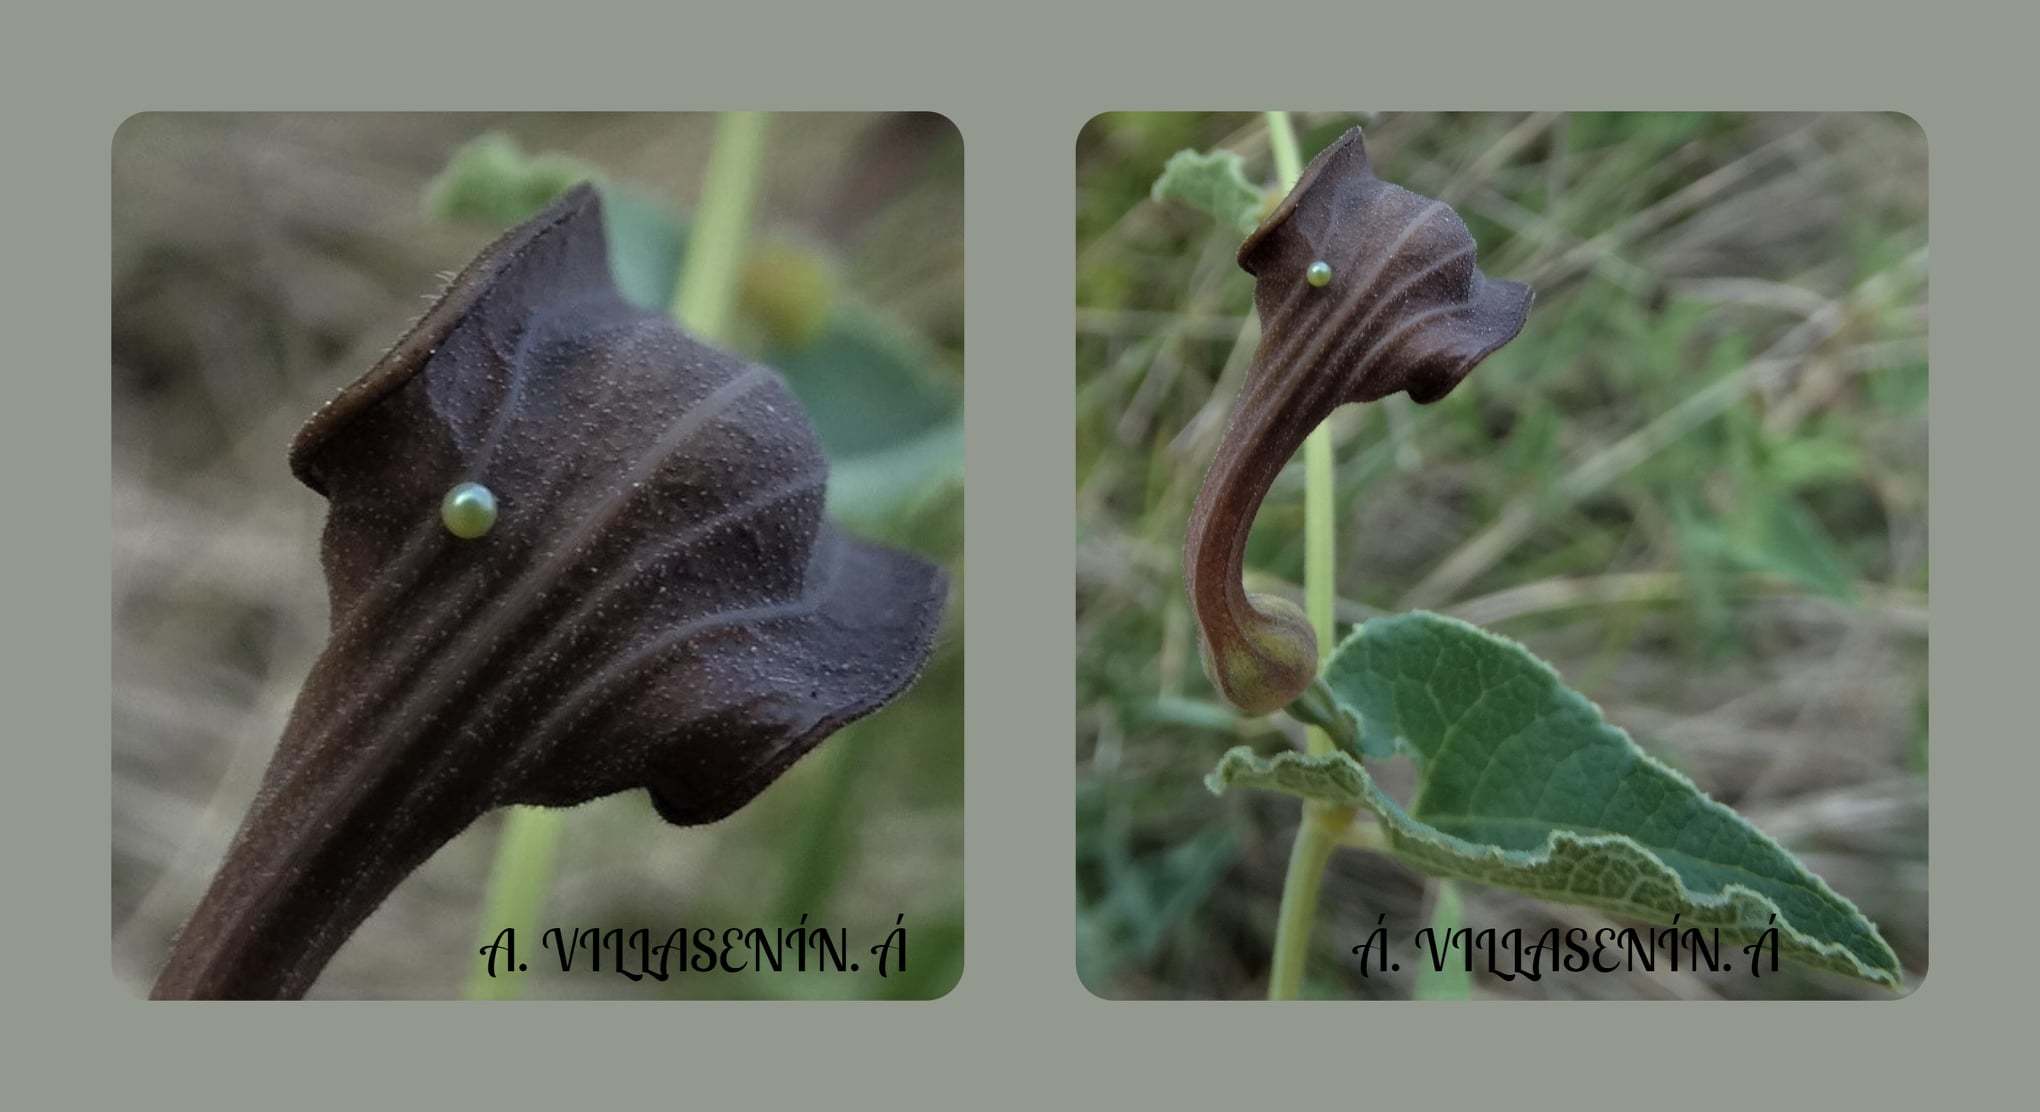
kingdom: Animalia
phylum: Arthropoda
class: Insecta
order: Lepidoptera
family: Papilionidae
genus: Zerynthia
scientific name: Zerynthia rumina
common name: Spanish festoon
